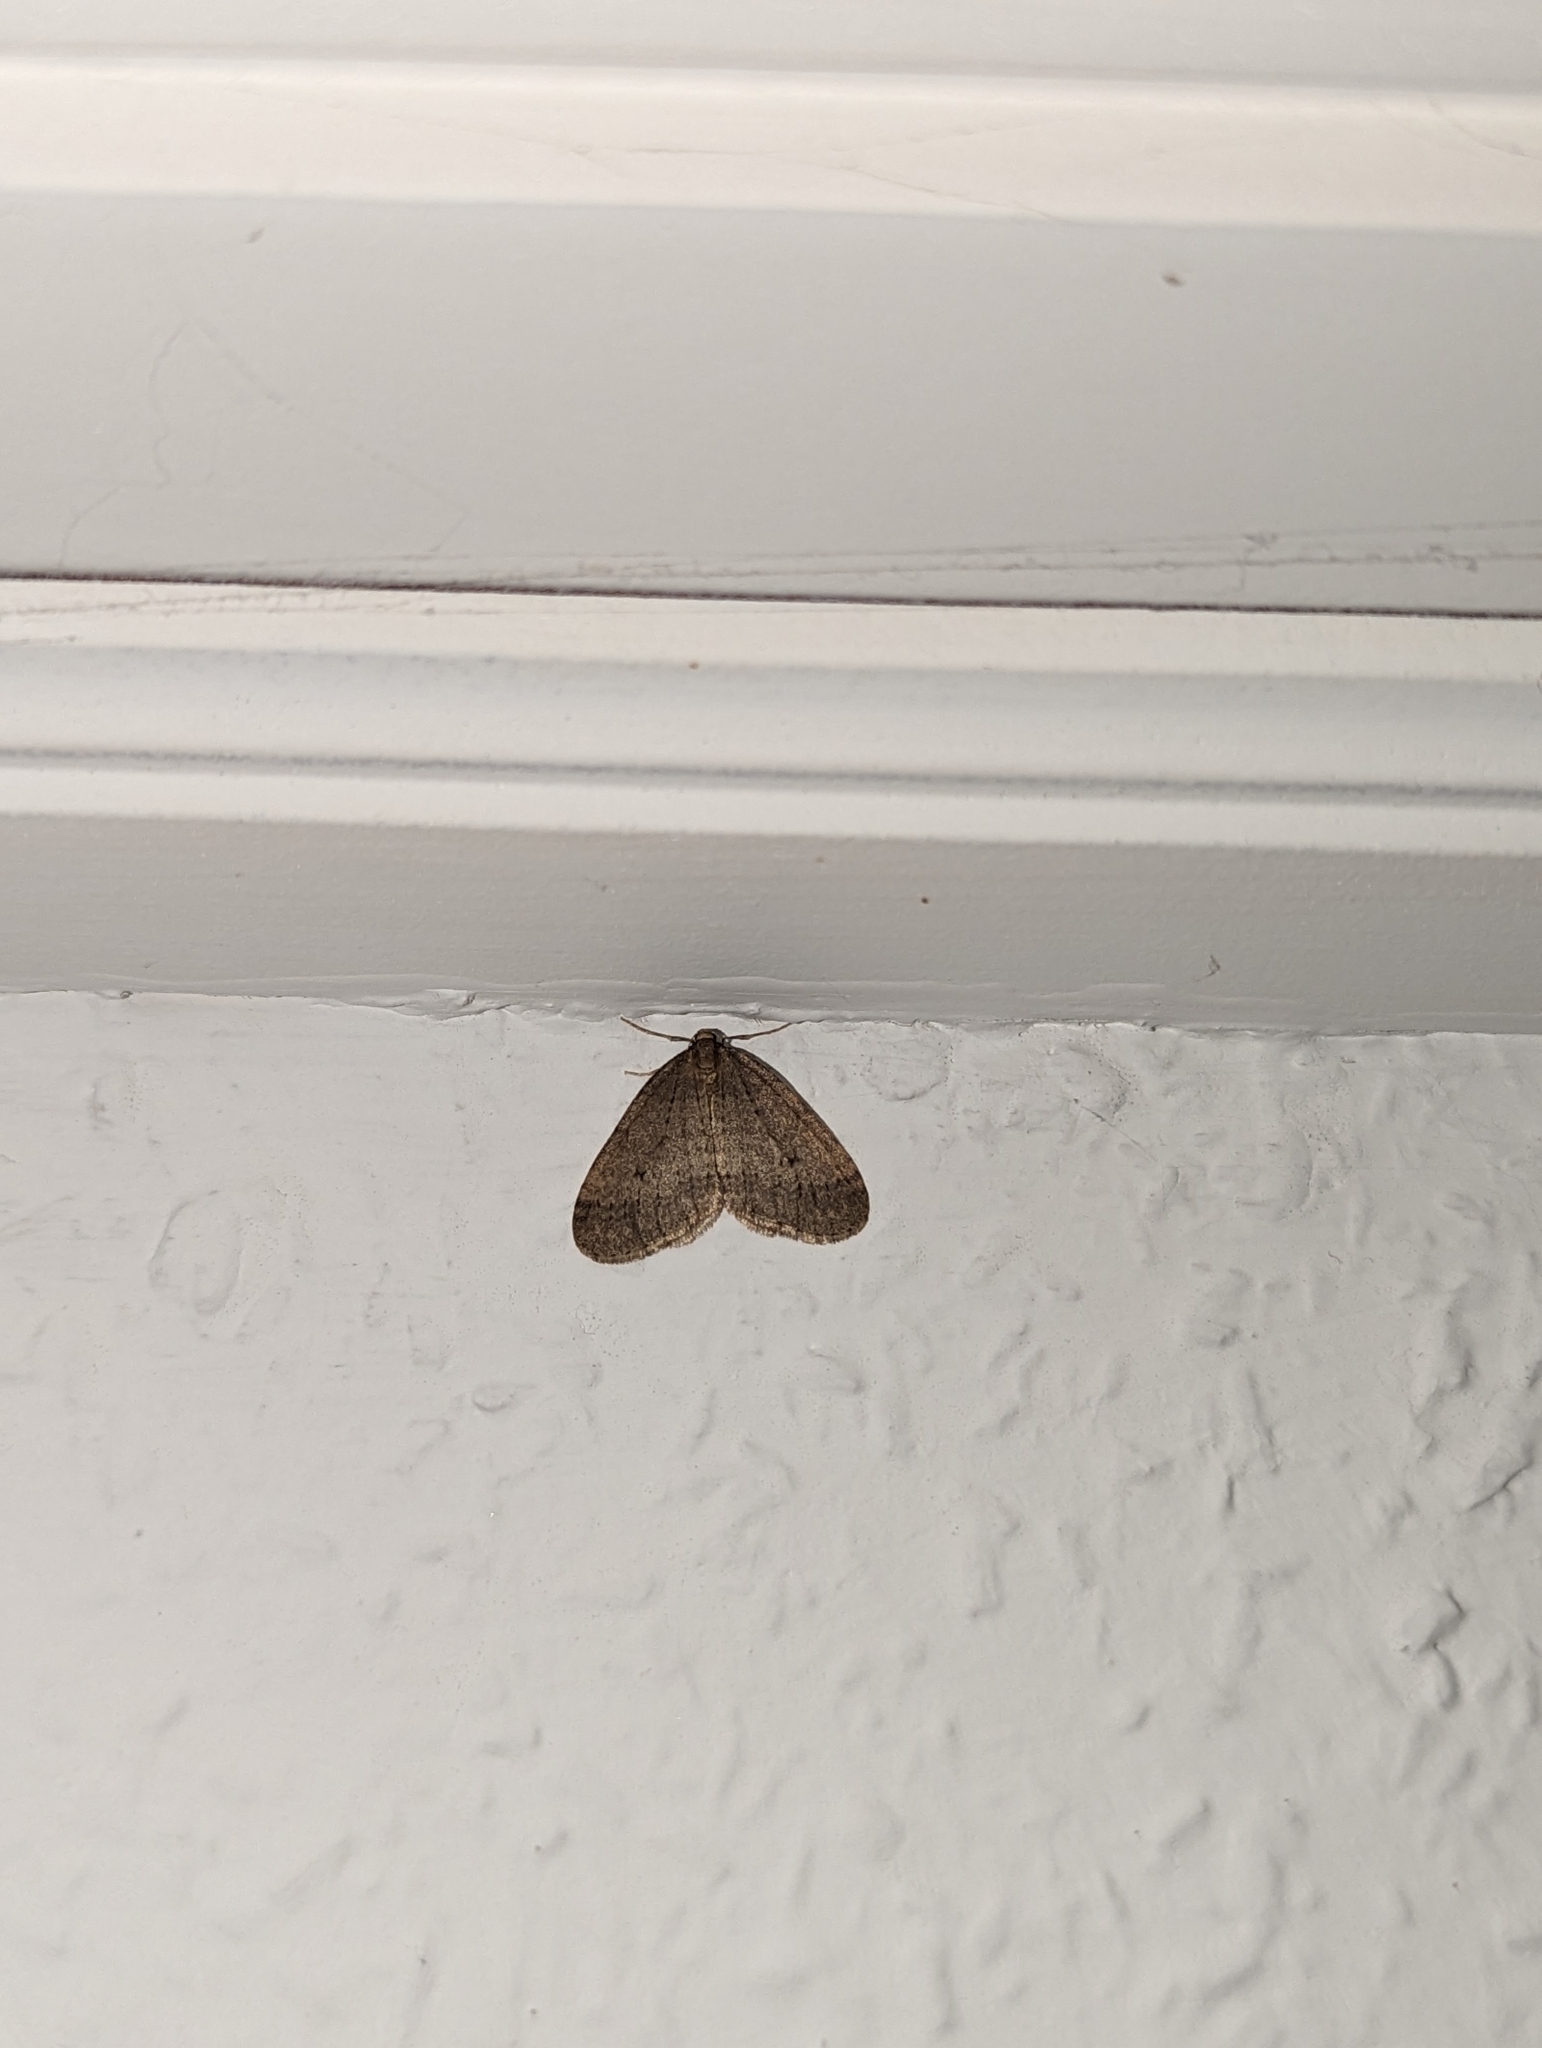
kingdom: Animalia
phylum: Arthropoda
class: Insecta
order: Lepidoptera
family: Geometridae
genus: Operophtera
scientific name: Operophtera brumata
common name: Winter moth
